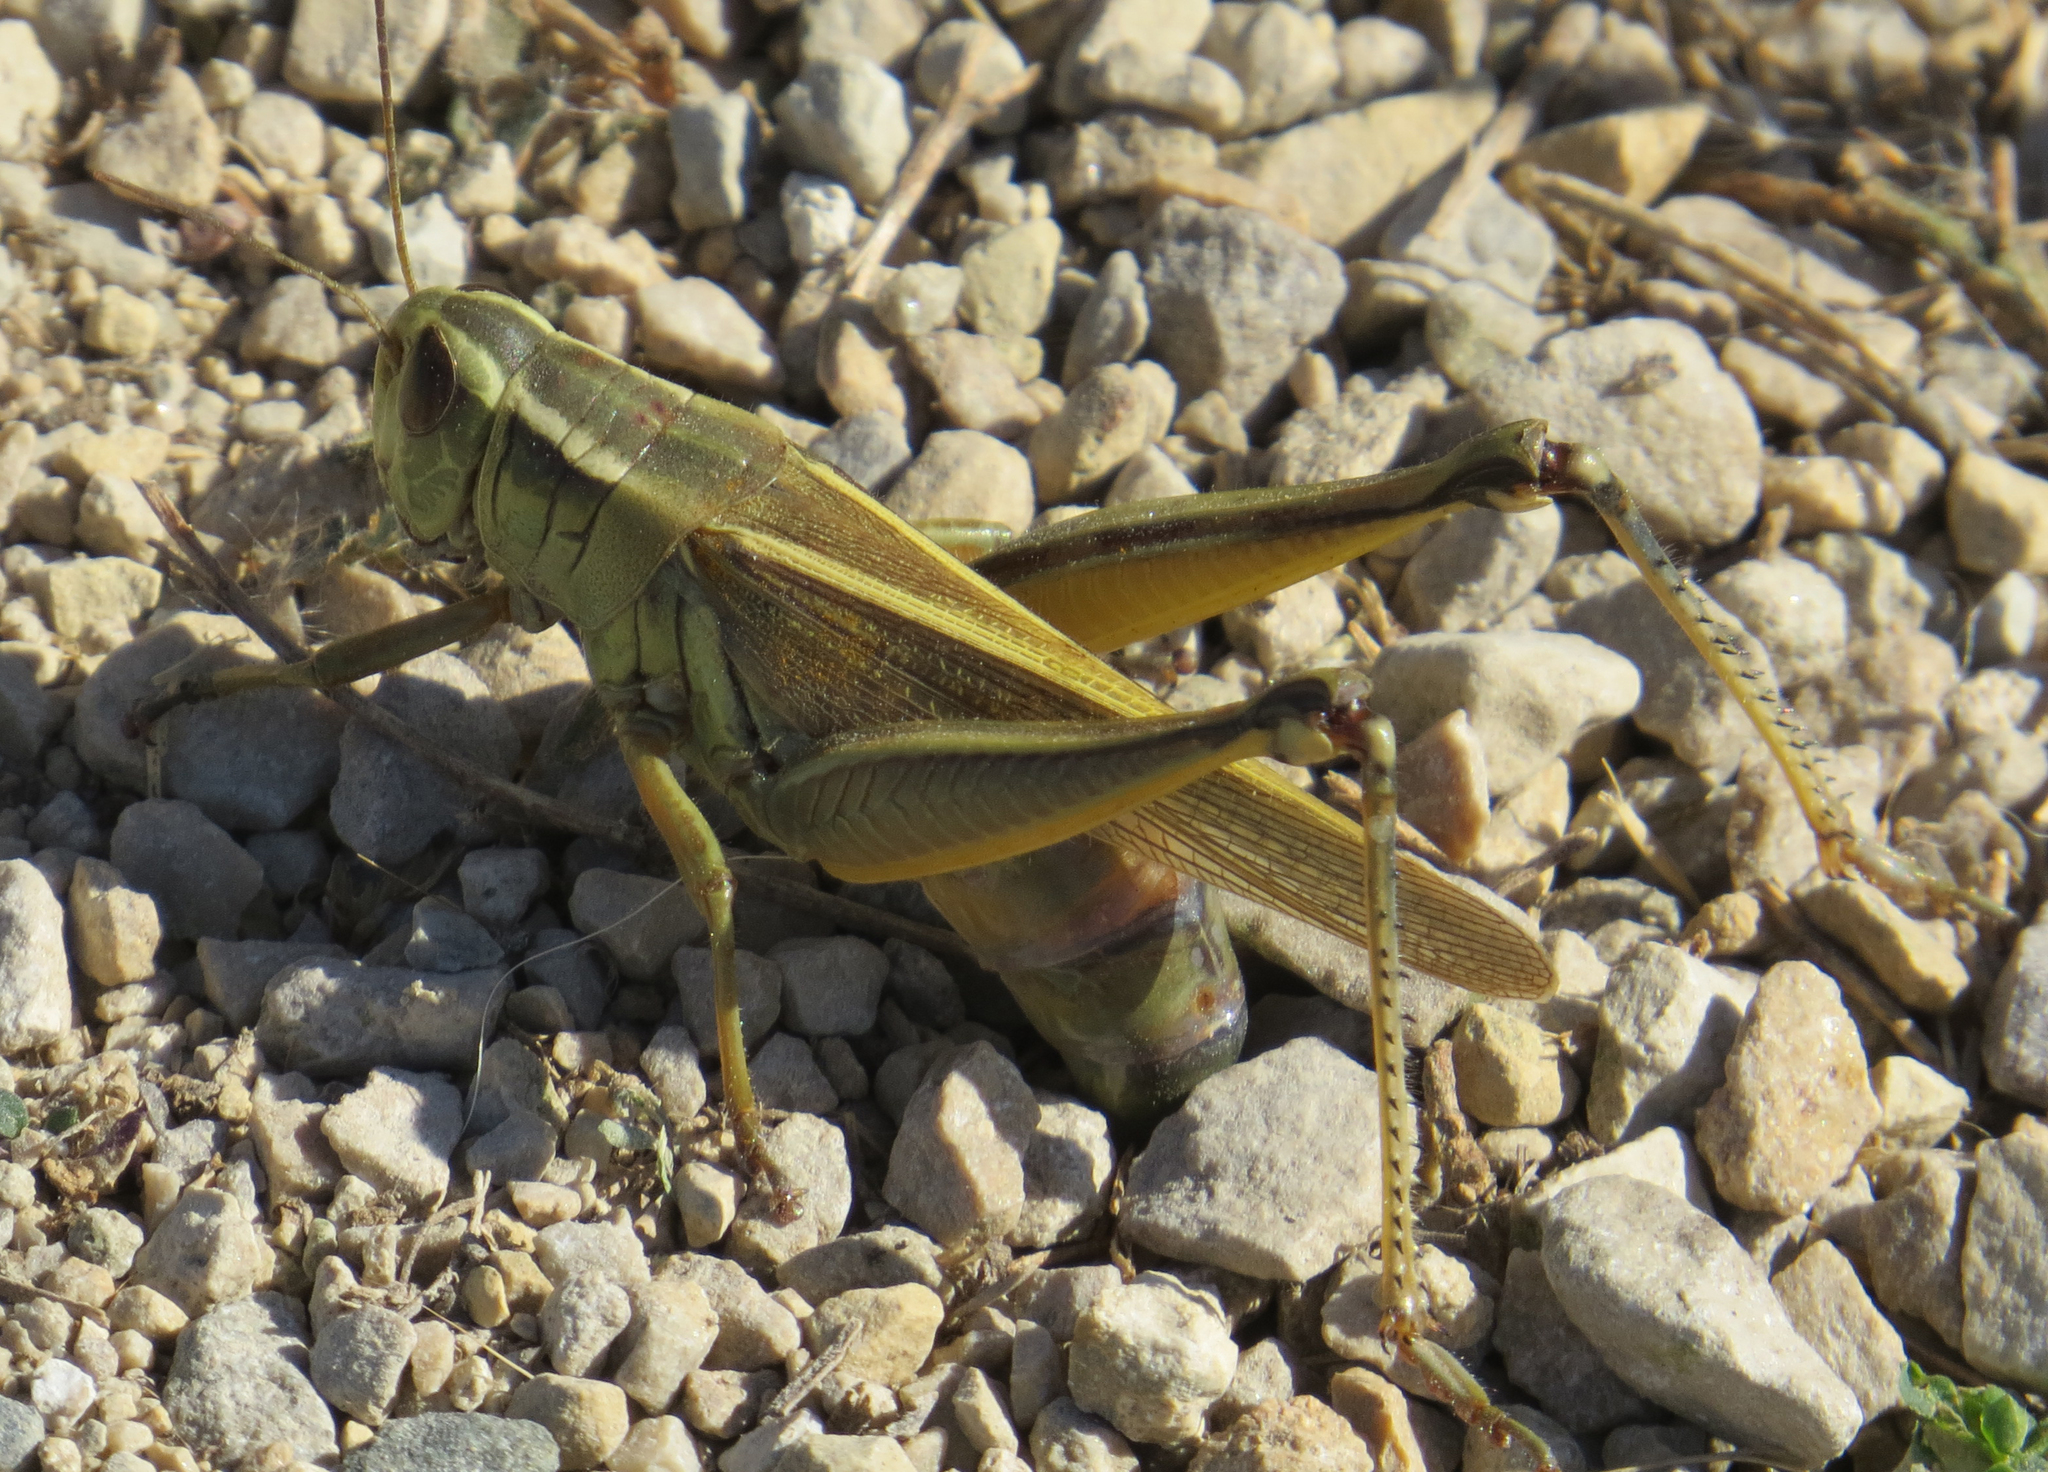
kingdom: Animalia
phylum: Arthropoda
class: Insecta
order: Orthoptera
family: Acrididae
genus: Melanoplus
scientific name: Melanoplus bivittatus
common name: Two-striped grasshopper
